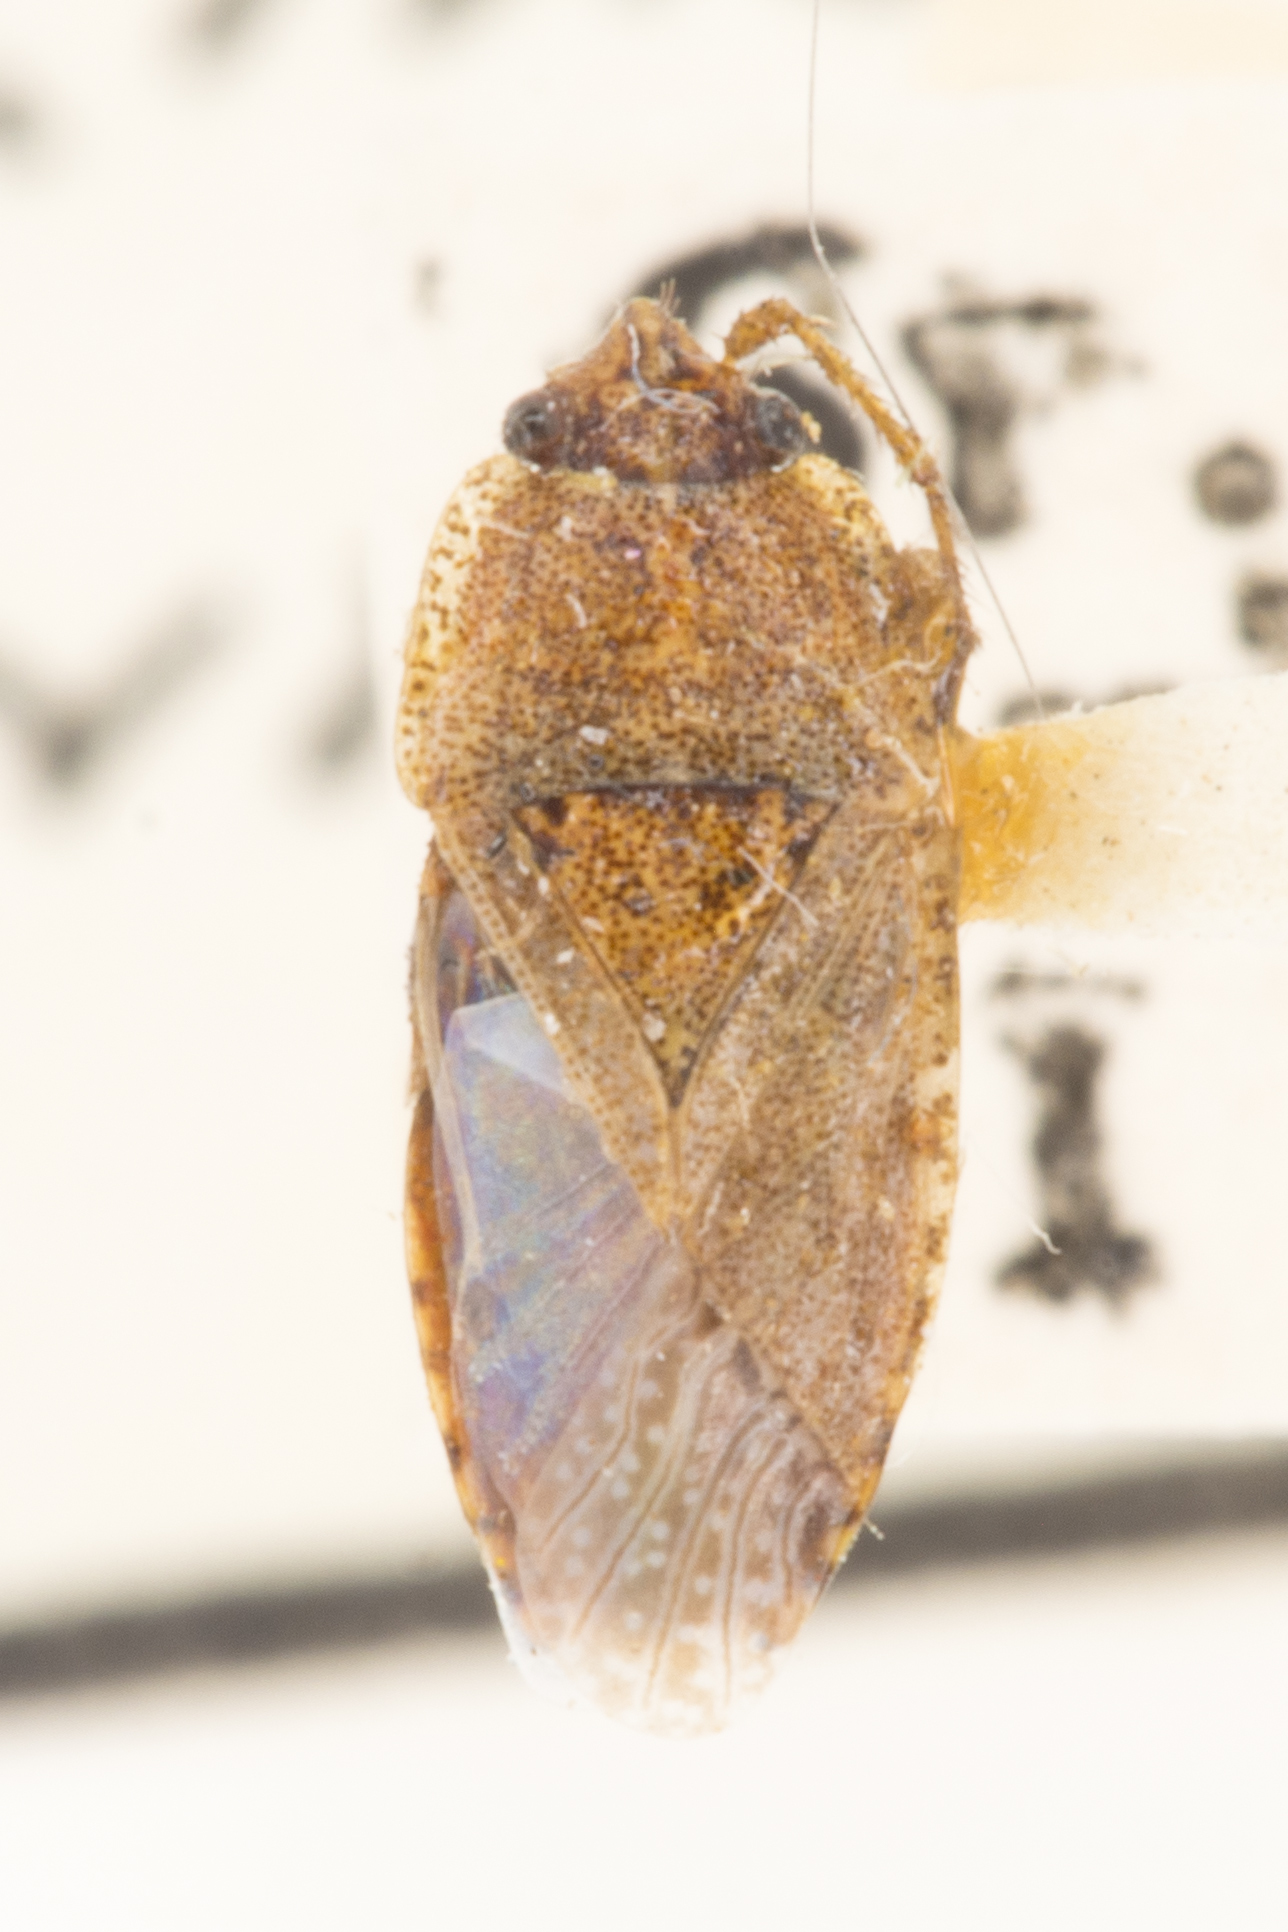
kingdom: Animalia
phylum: Arthropoda
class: Insecta
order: Hemiptera
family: Rhyparochromidae
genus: Emblethis
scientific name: Emblethis vicarius
